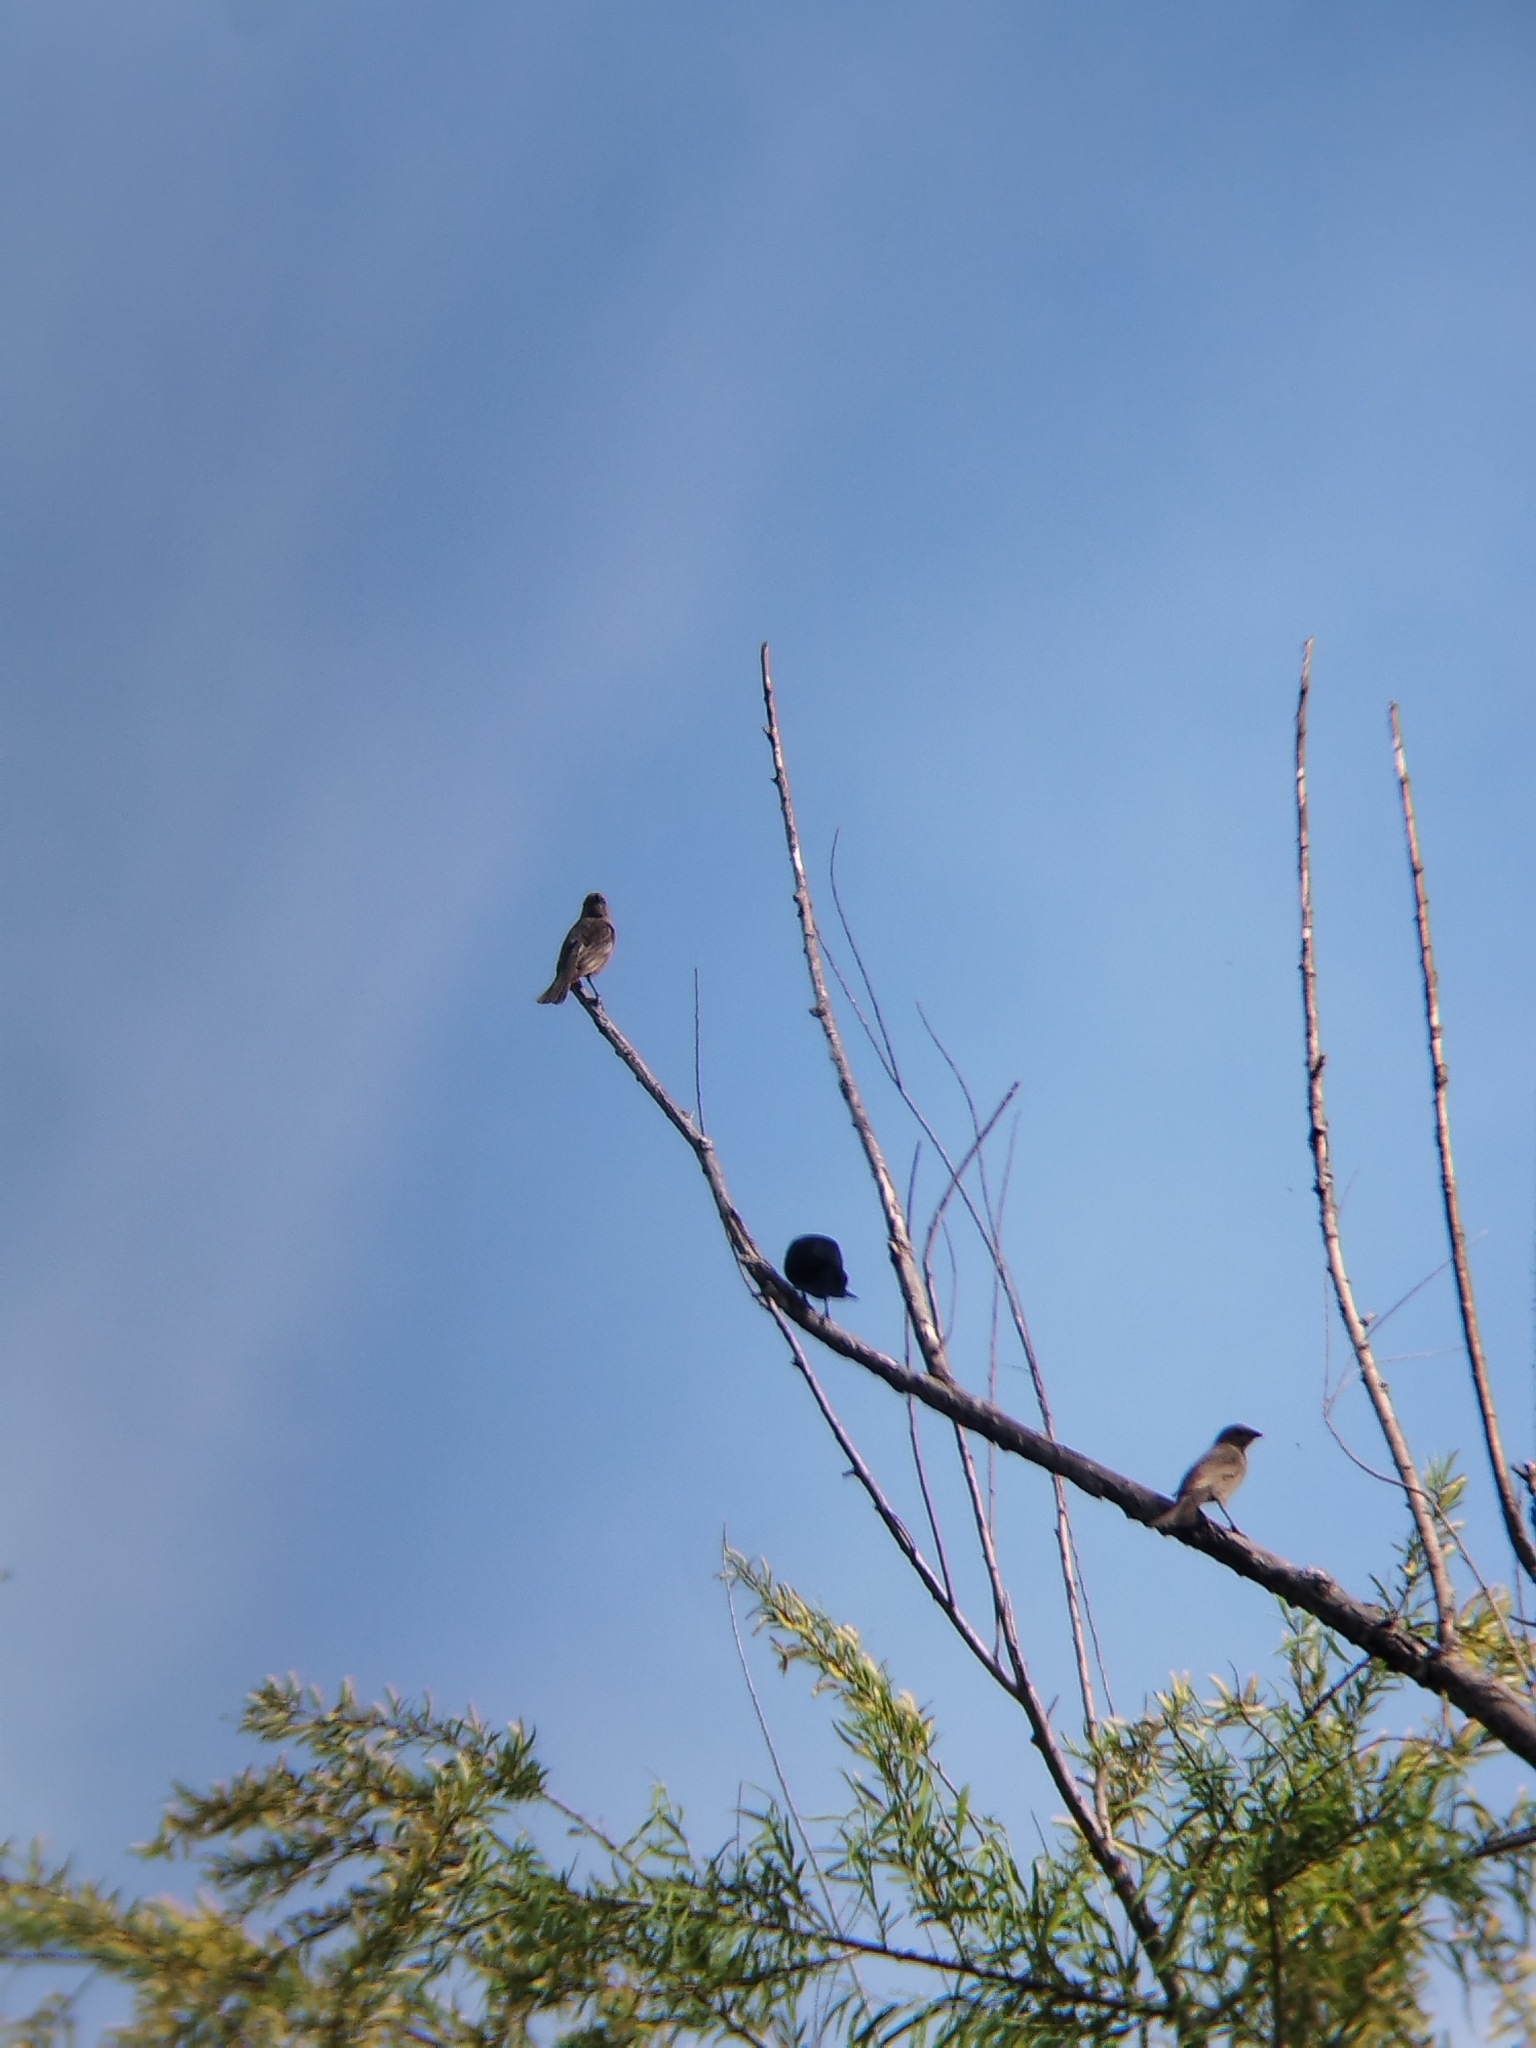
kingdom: Animalia
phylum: Chordata
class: Aves
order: Passeriformes
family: Icteridae
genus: Molothrus
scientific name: Molothrus bonariensis
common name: Shiny cowbird
